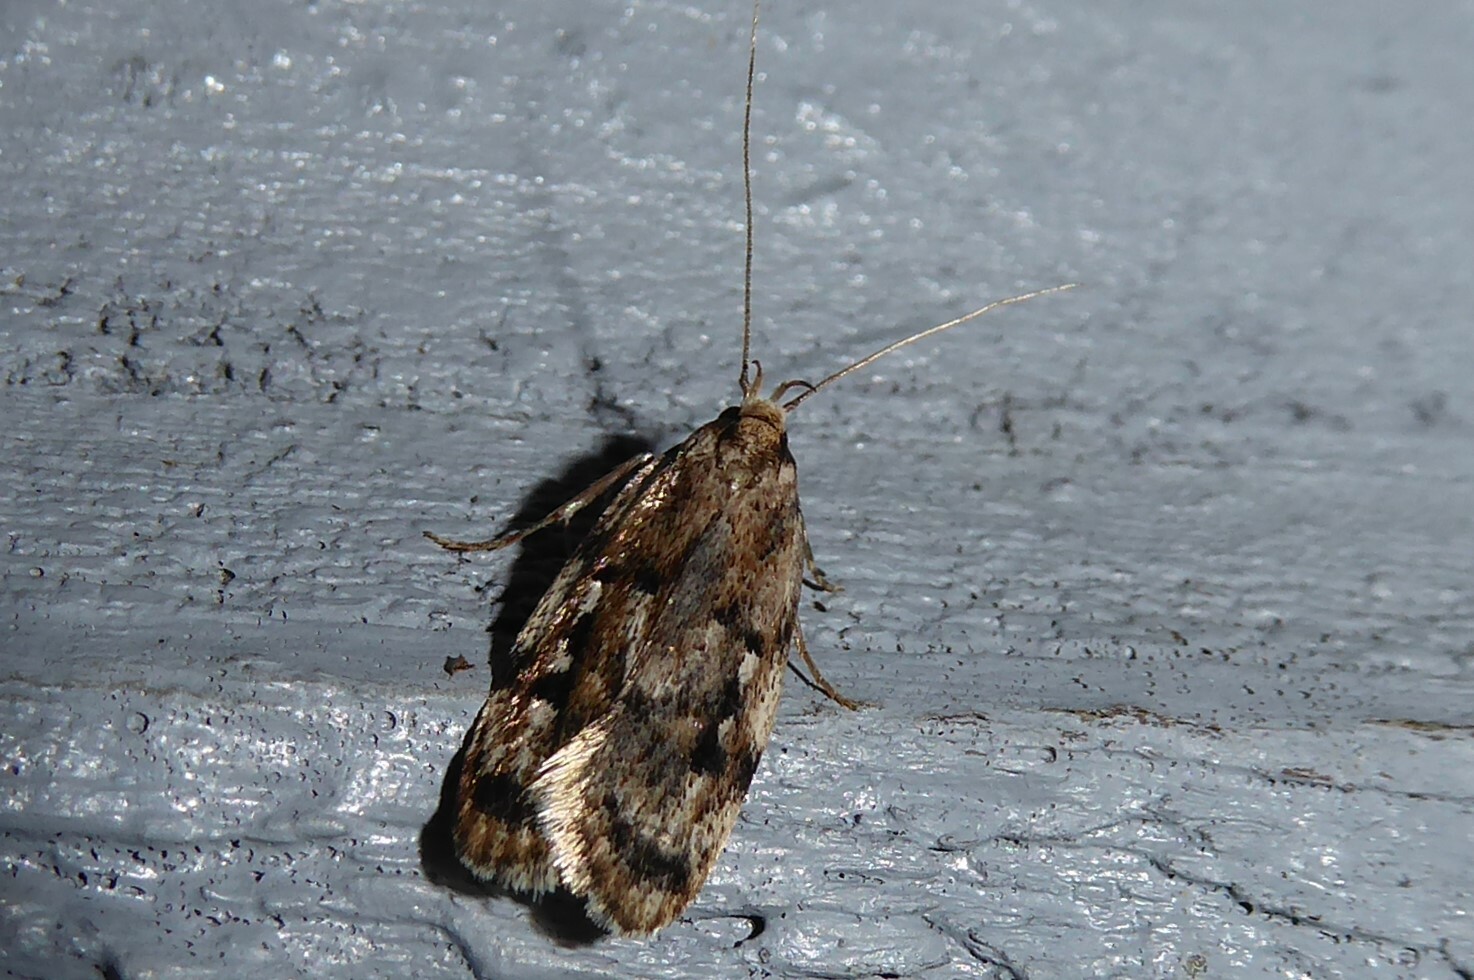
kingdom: Animalia
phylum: Arthropoda
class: Insecta
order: Lepidoptera
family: Oecophoridae
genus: Barea
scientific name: Barea exarcha
